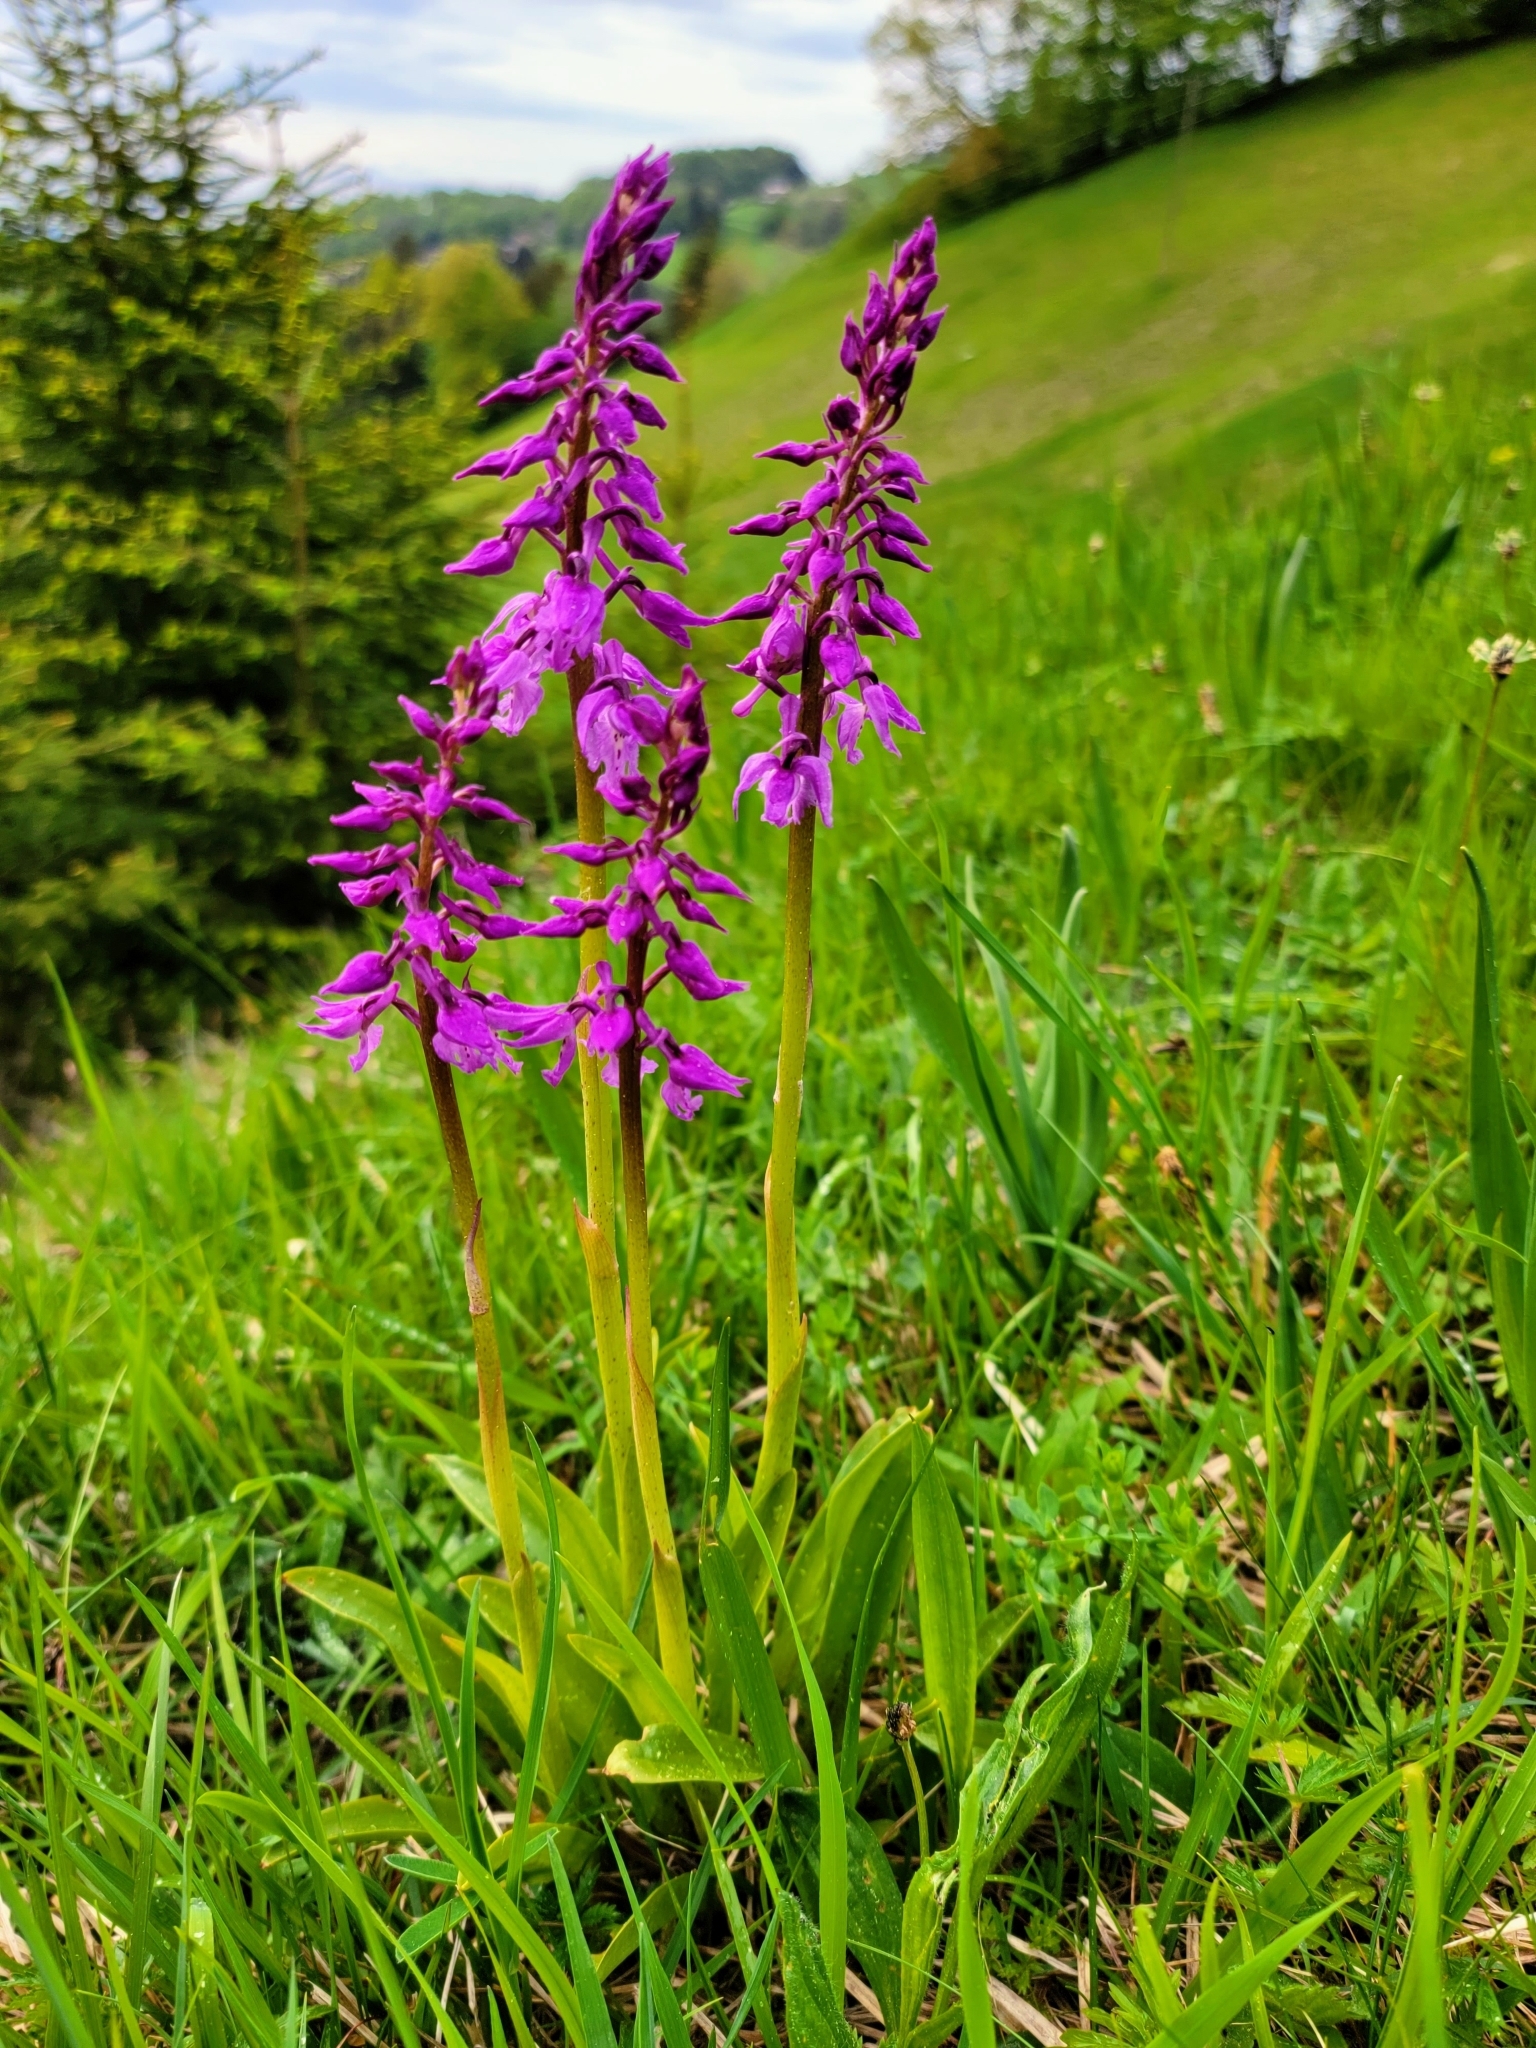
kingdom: Plantae
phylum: Tracheophyta
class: Liliopsida
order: Asparagales
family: Orchidaceae
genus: Orchis
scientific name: Orchis mascula
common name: Early-purple orchid
